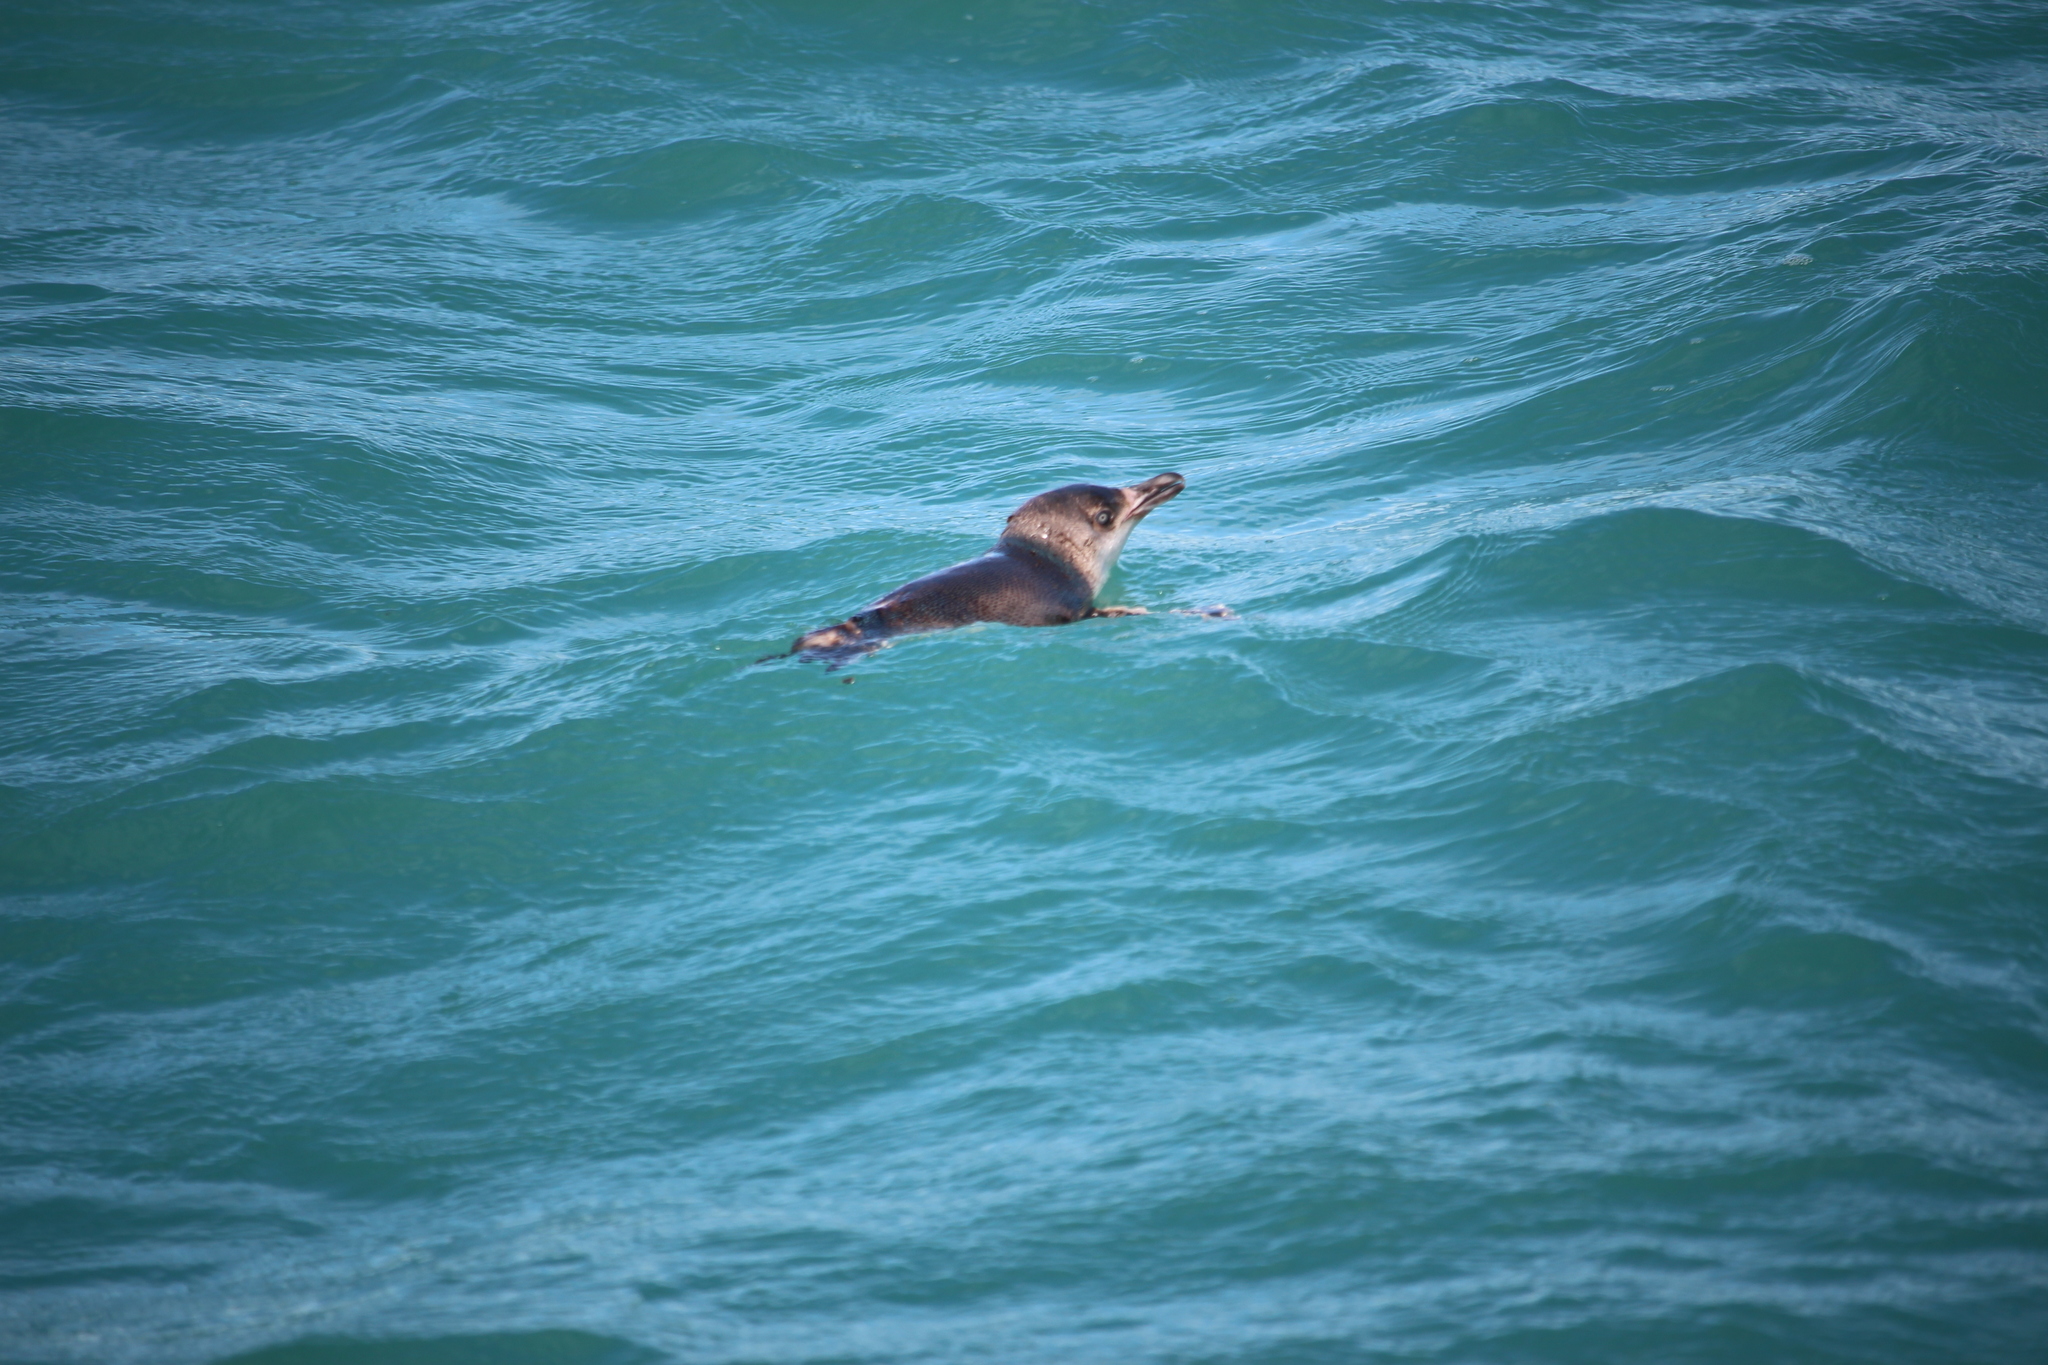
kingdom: Animalia
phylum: Chordata
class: Aves
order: Sphenisciformes
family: Spheniscidae
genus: Eudyptula
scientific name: Eudyptula minor
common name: Little penguin
